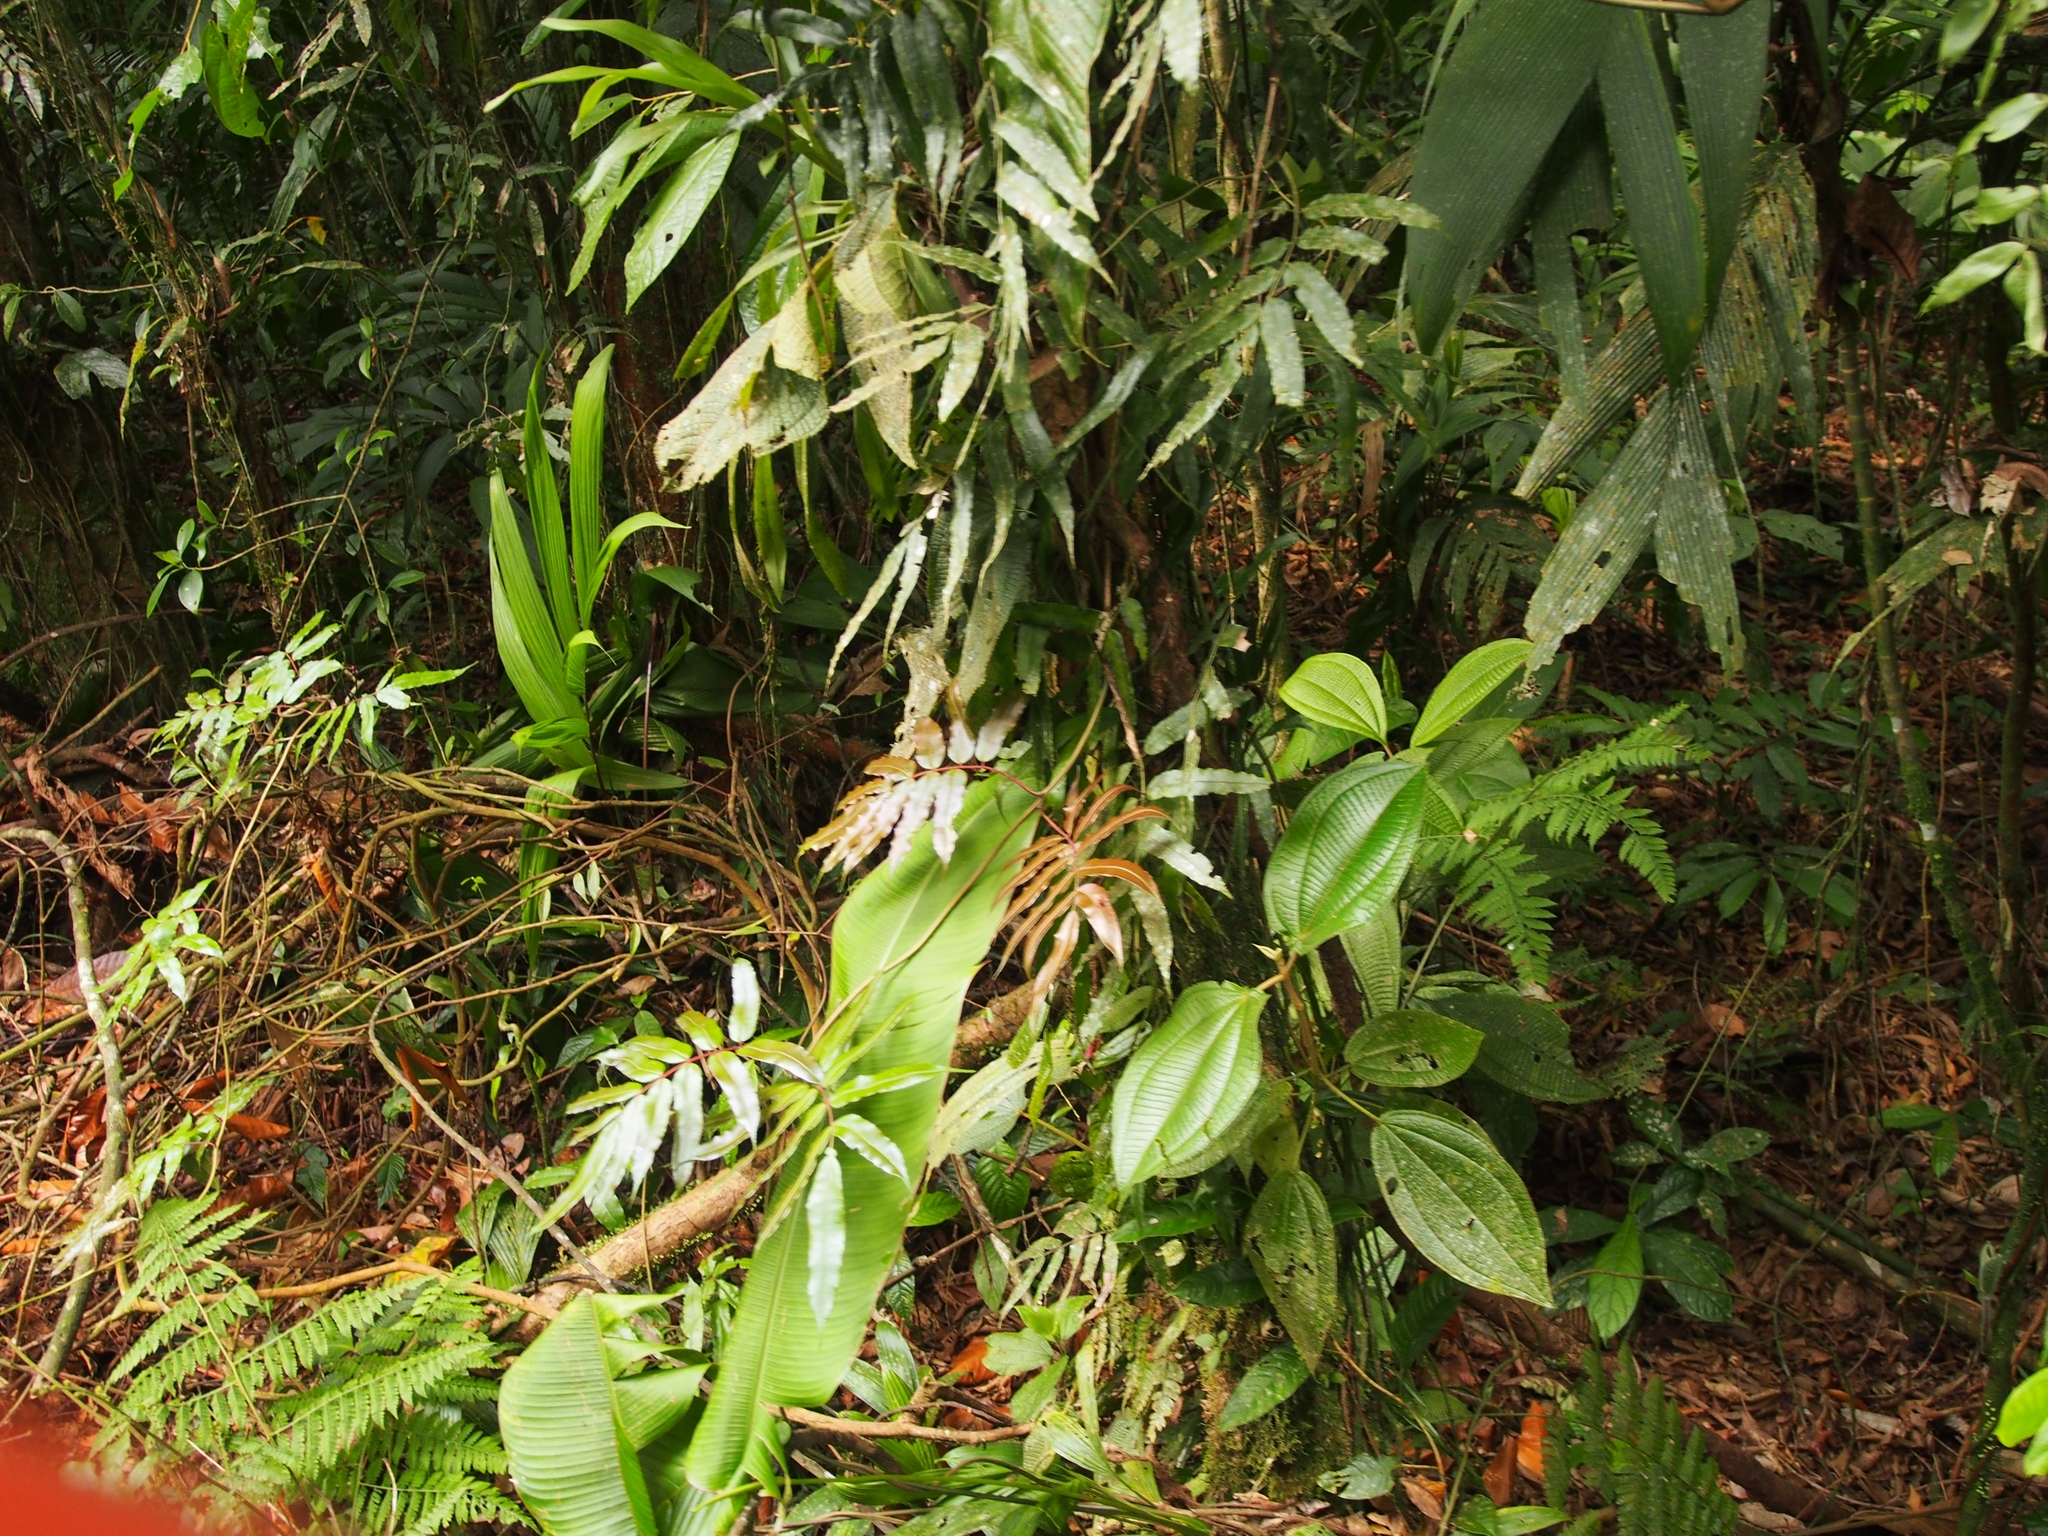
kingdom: Plantae
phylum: Tracheophyta
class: Polypodiopsida
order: Polypodiales
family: Blechnaceae
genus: Salpichlaena
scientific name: Salpichlaena papyrus
